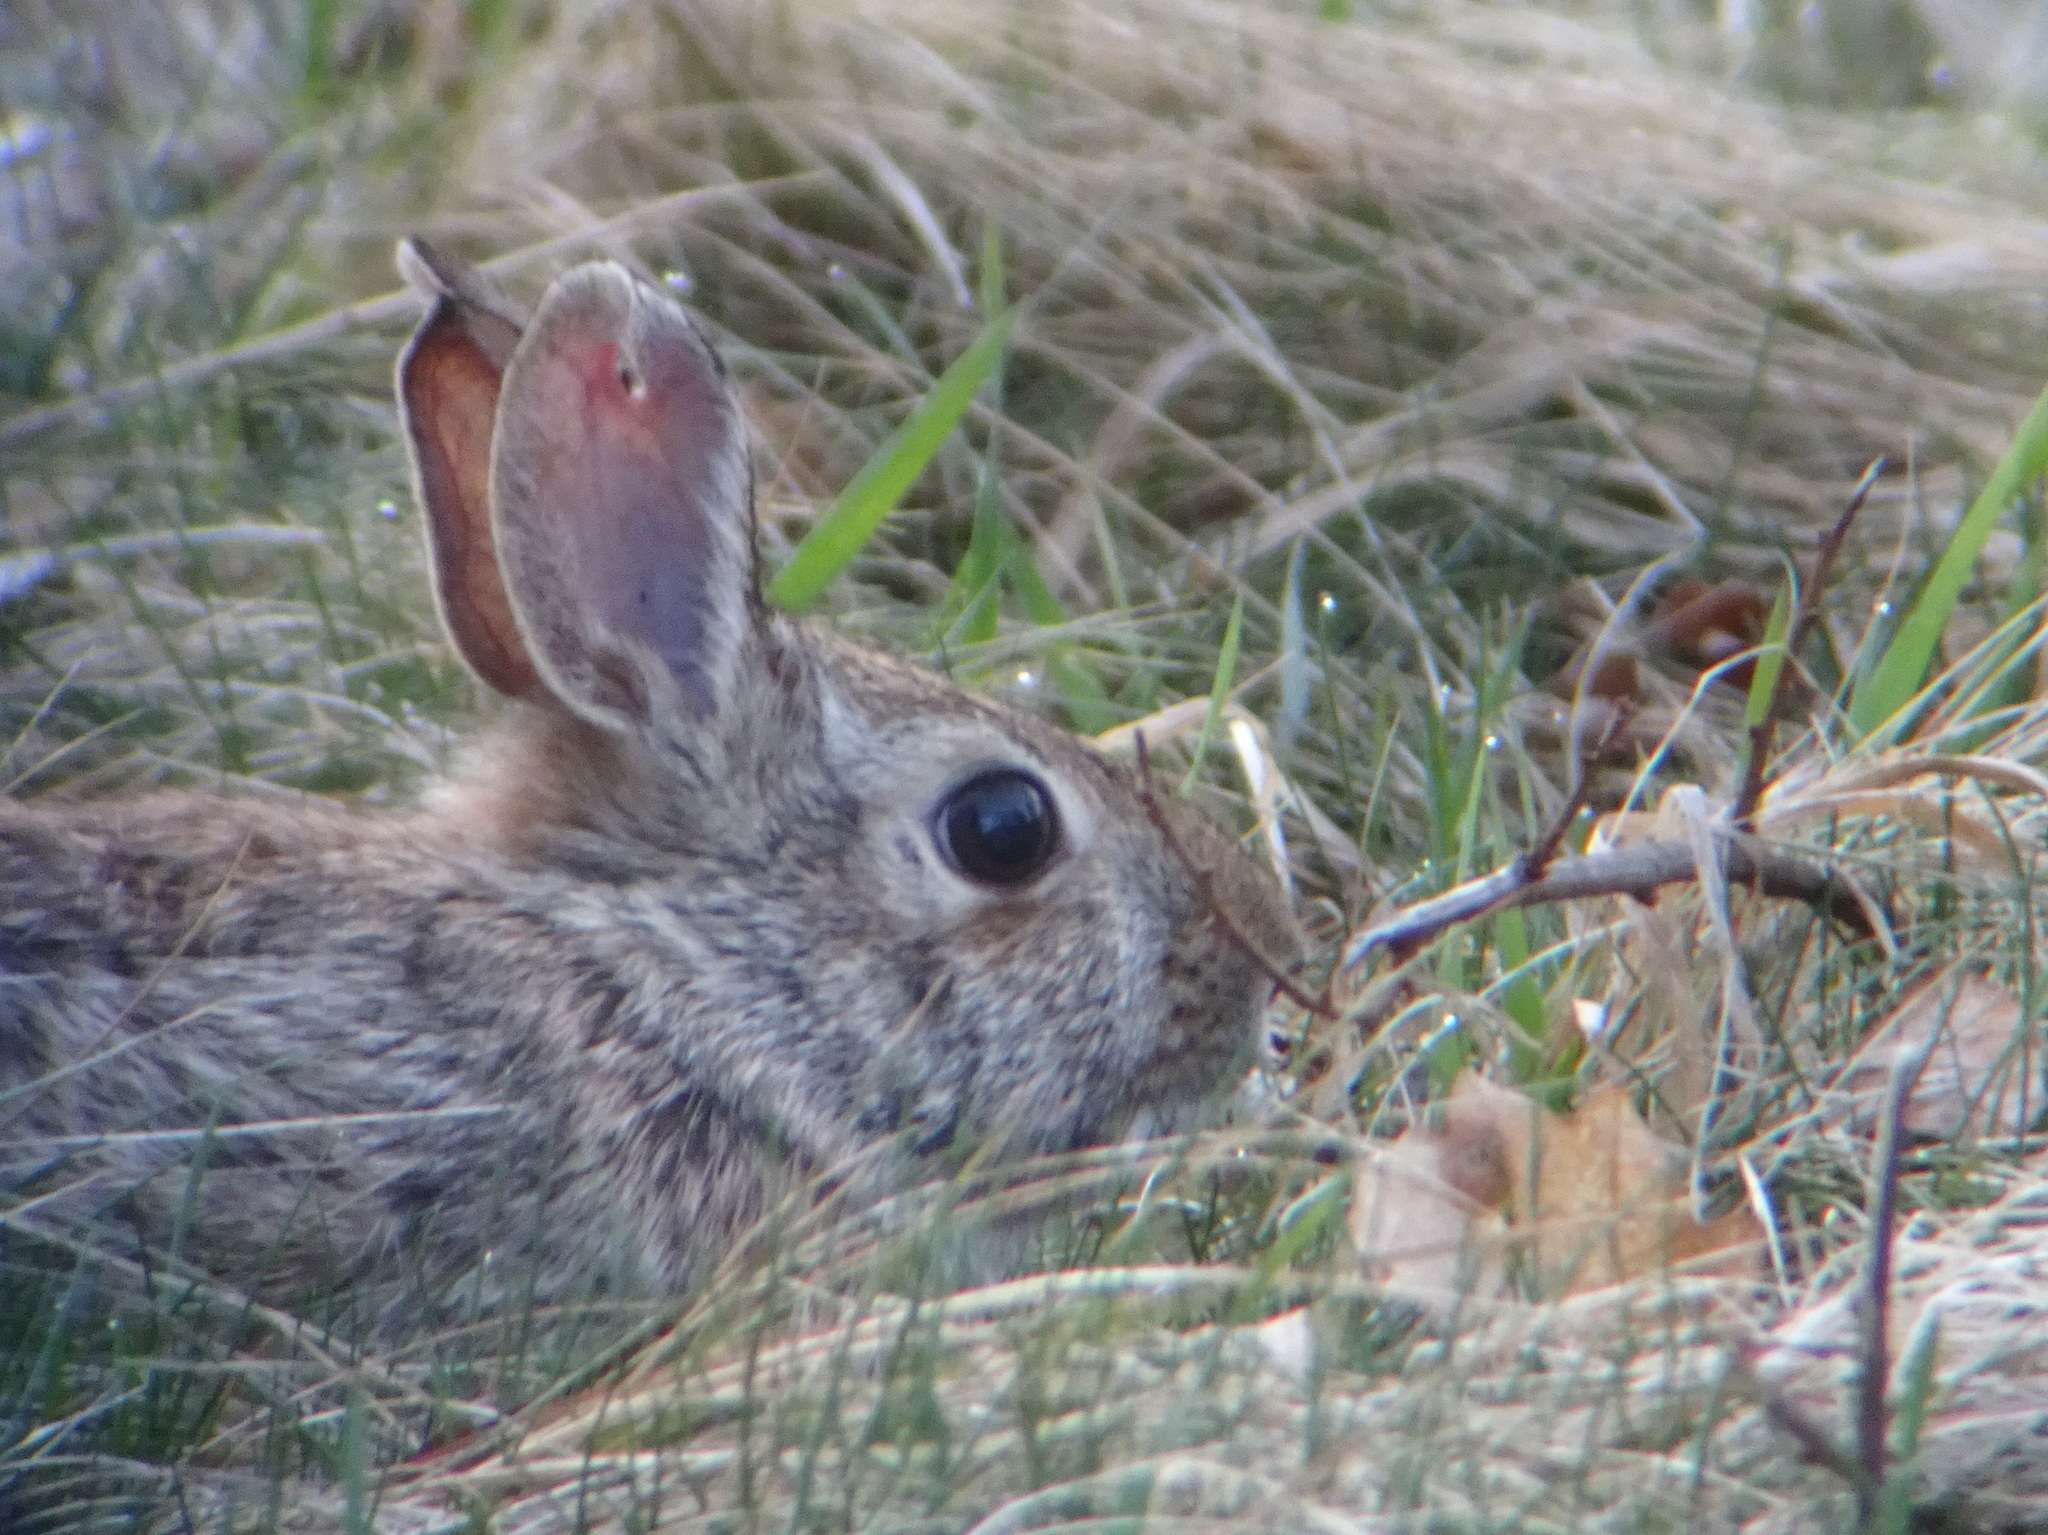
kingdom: Animalia
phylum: Chordata
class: Mammalia
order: Lagomorpha
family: Leporidae
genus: Sylvilagus
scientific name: Sylvilagus floridanus
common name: Eastern cottontail
